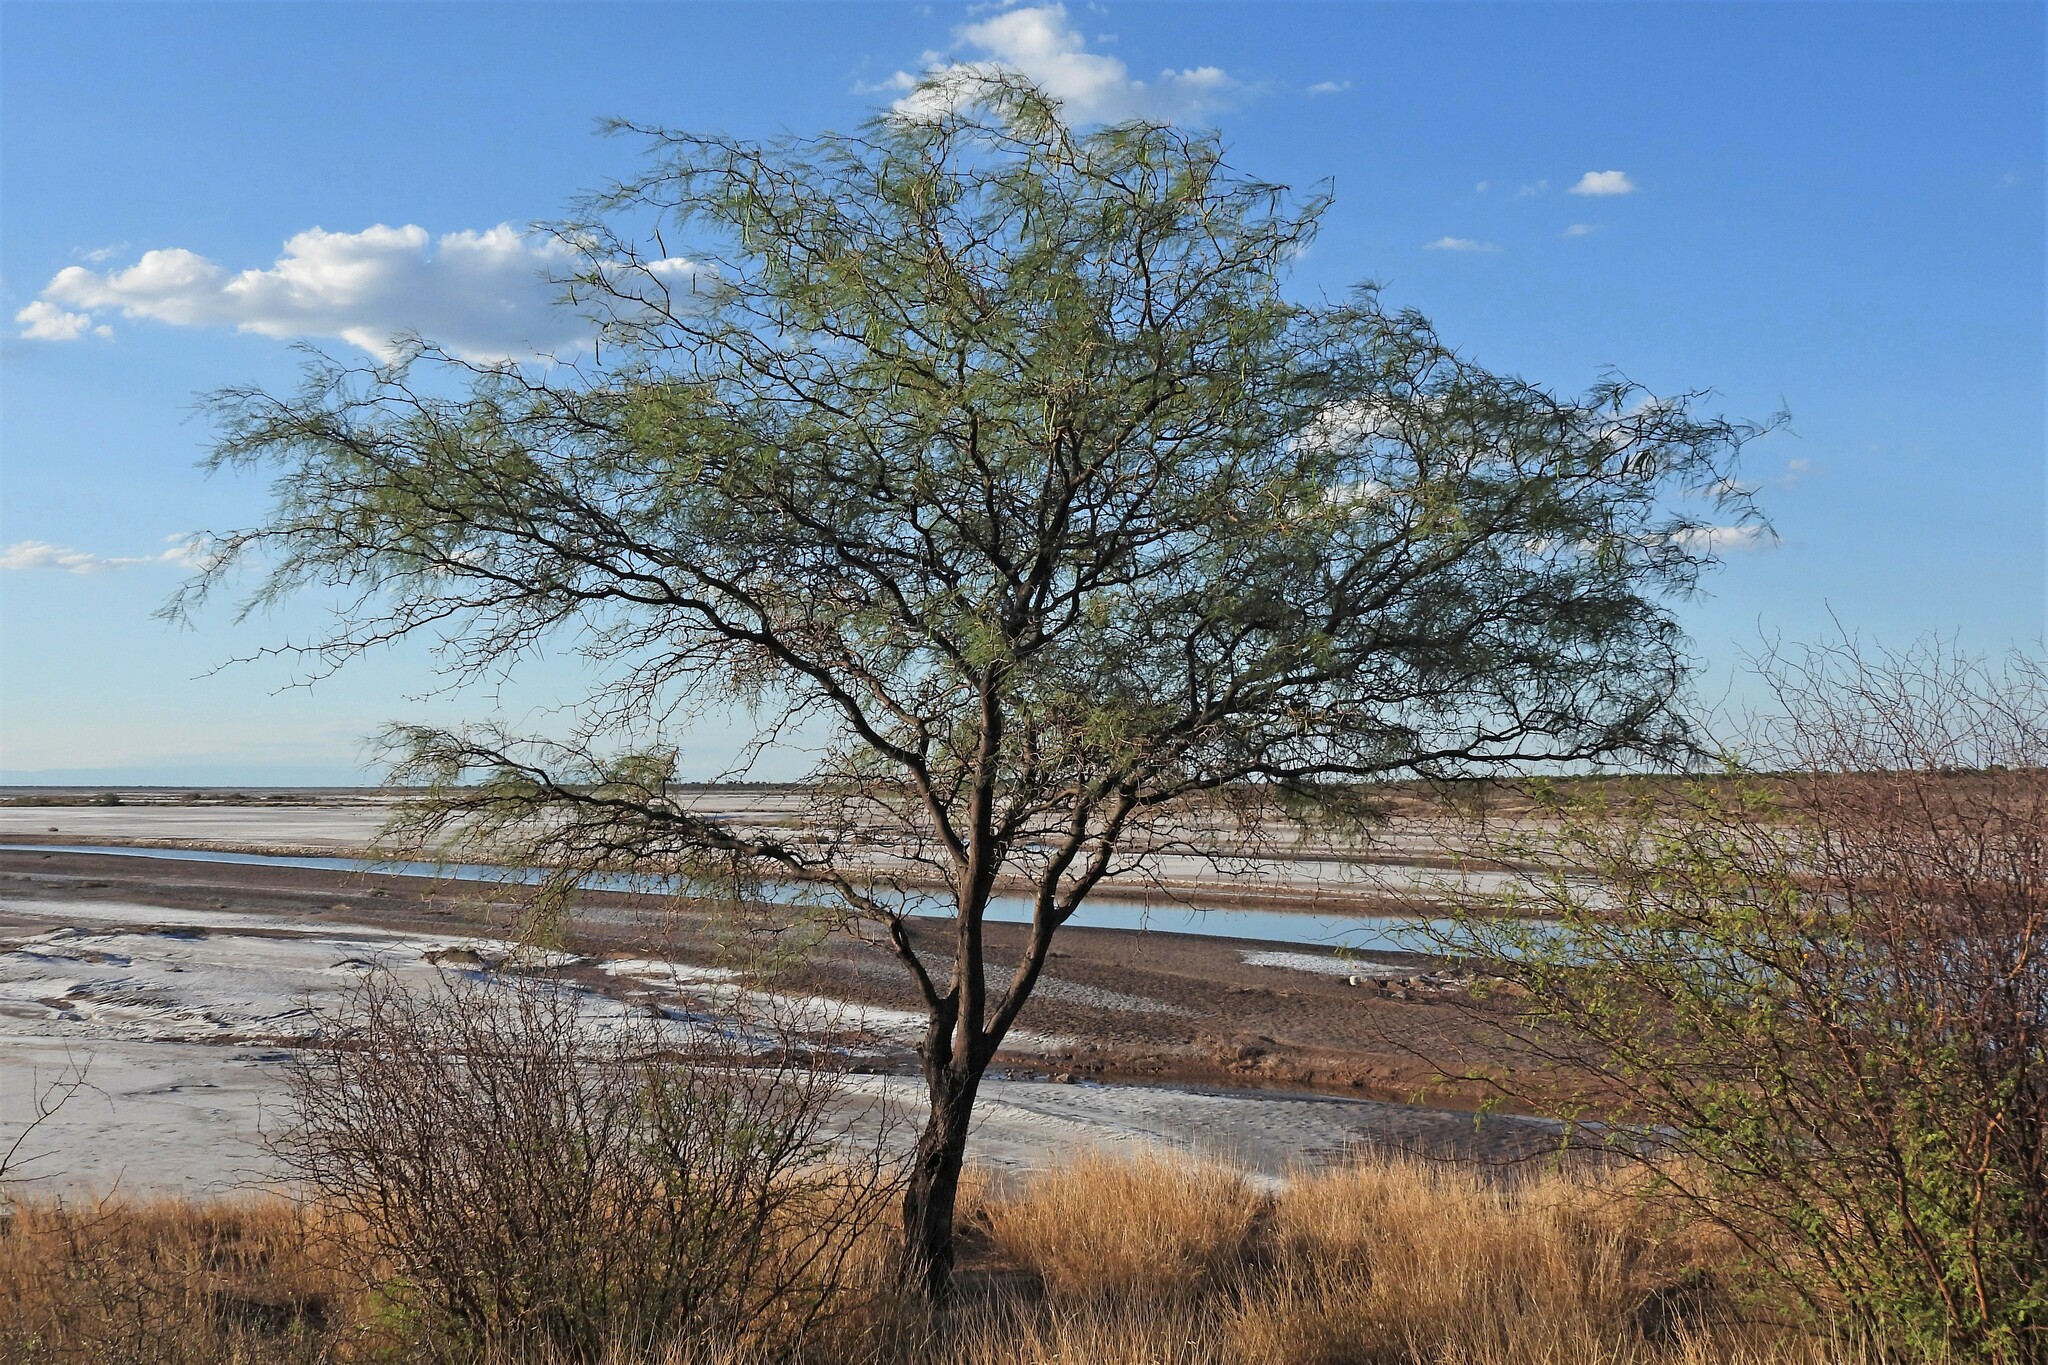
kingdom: Plantae
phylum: Tracheophyta
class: Magnoliopsida
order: Fabales
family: Fabaceae
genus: Prosopis
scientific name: Prosopis pugionata
